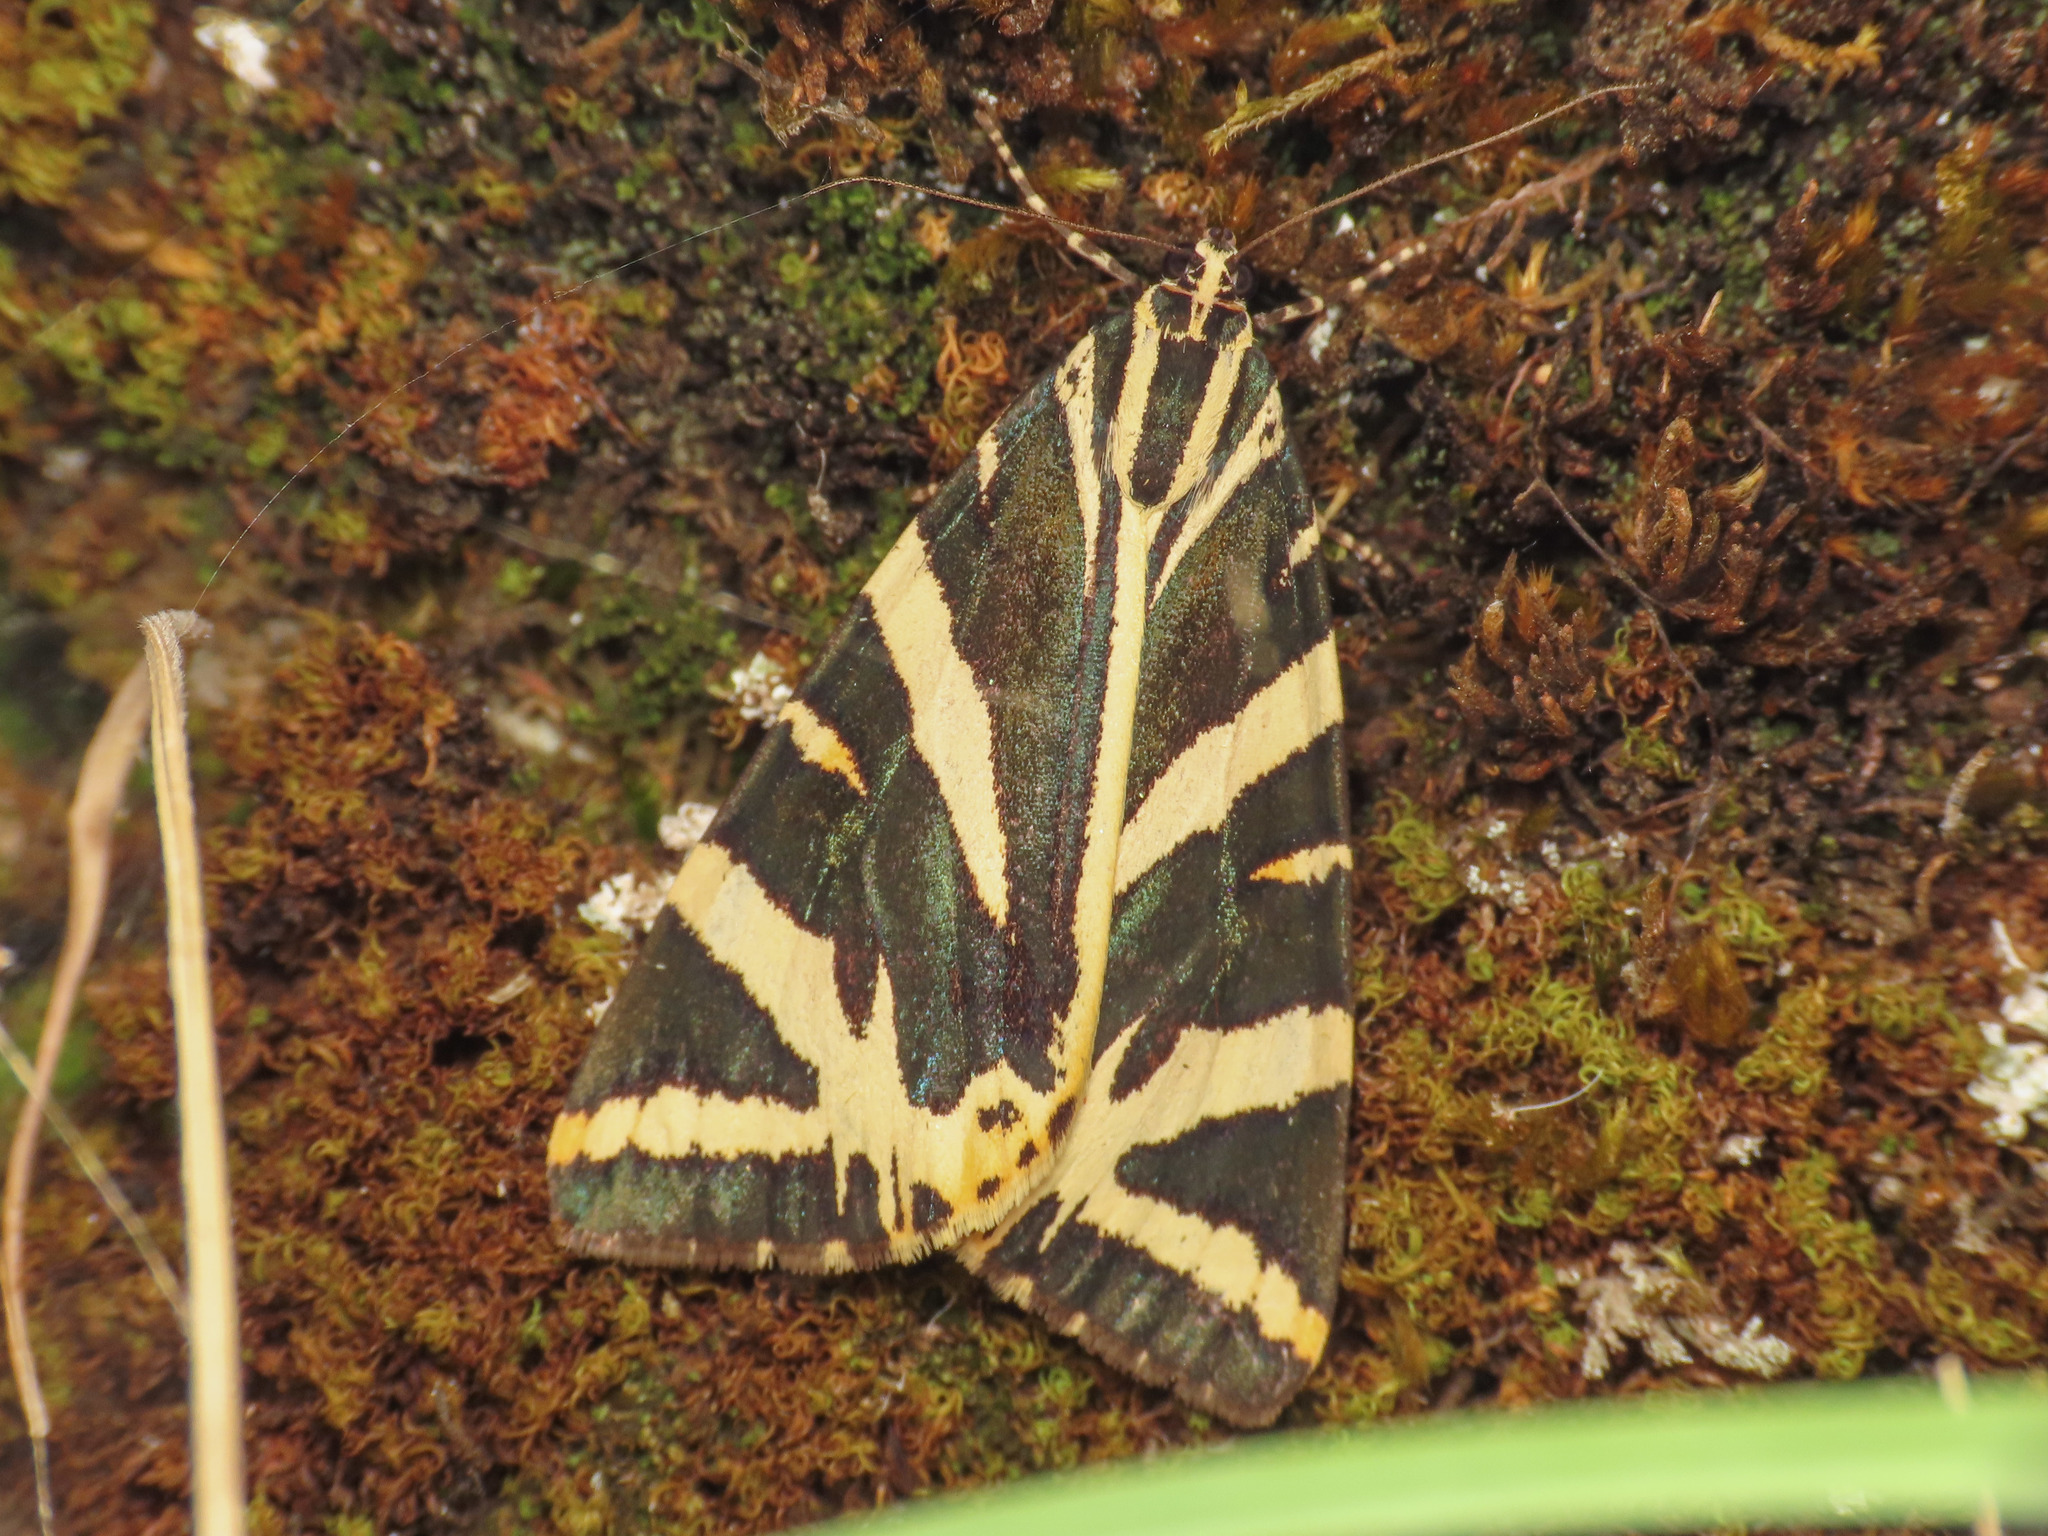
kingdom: Animalia
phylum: Arthropoda
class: Insecta
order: Lepidoptera
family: Erebidae
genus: Euplagia
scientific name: Euplagia quadripunctaria
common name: Jersey tiger
